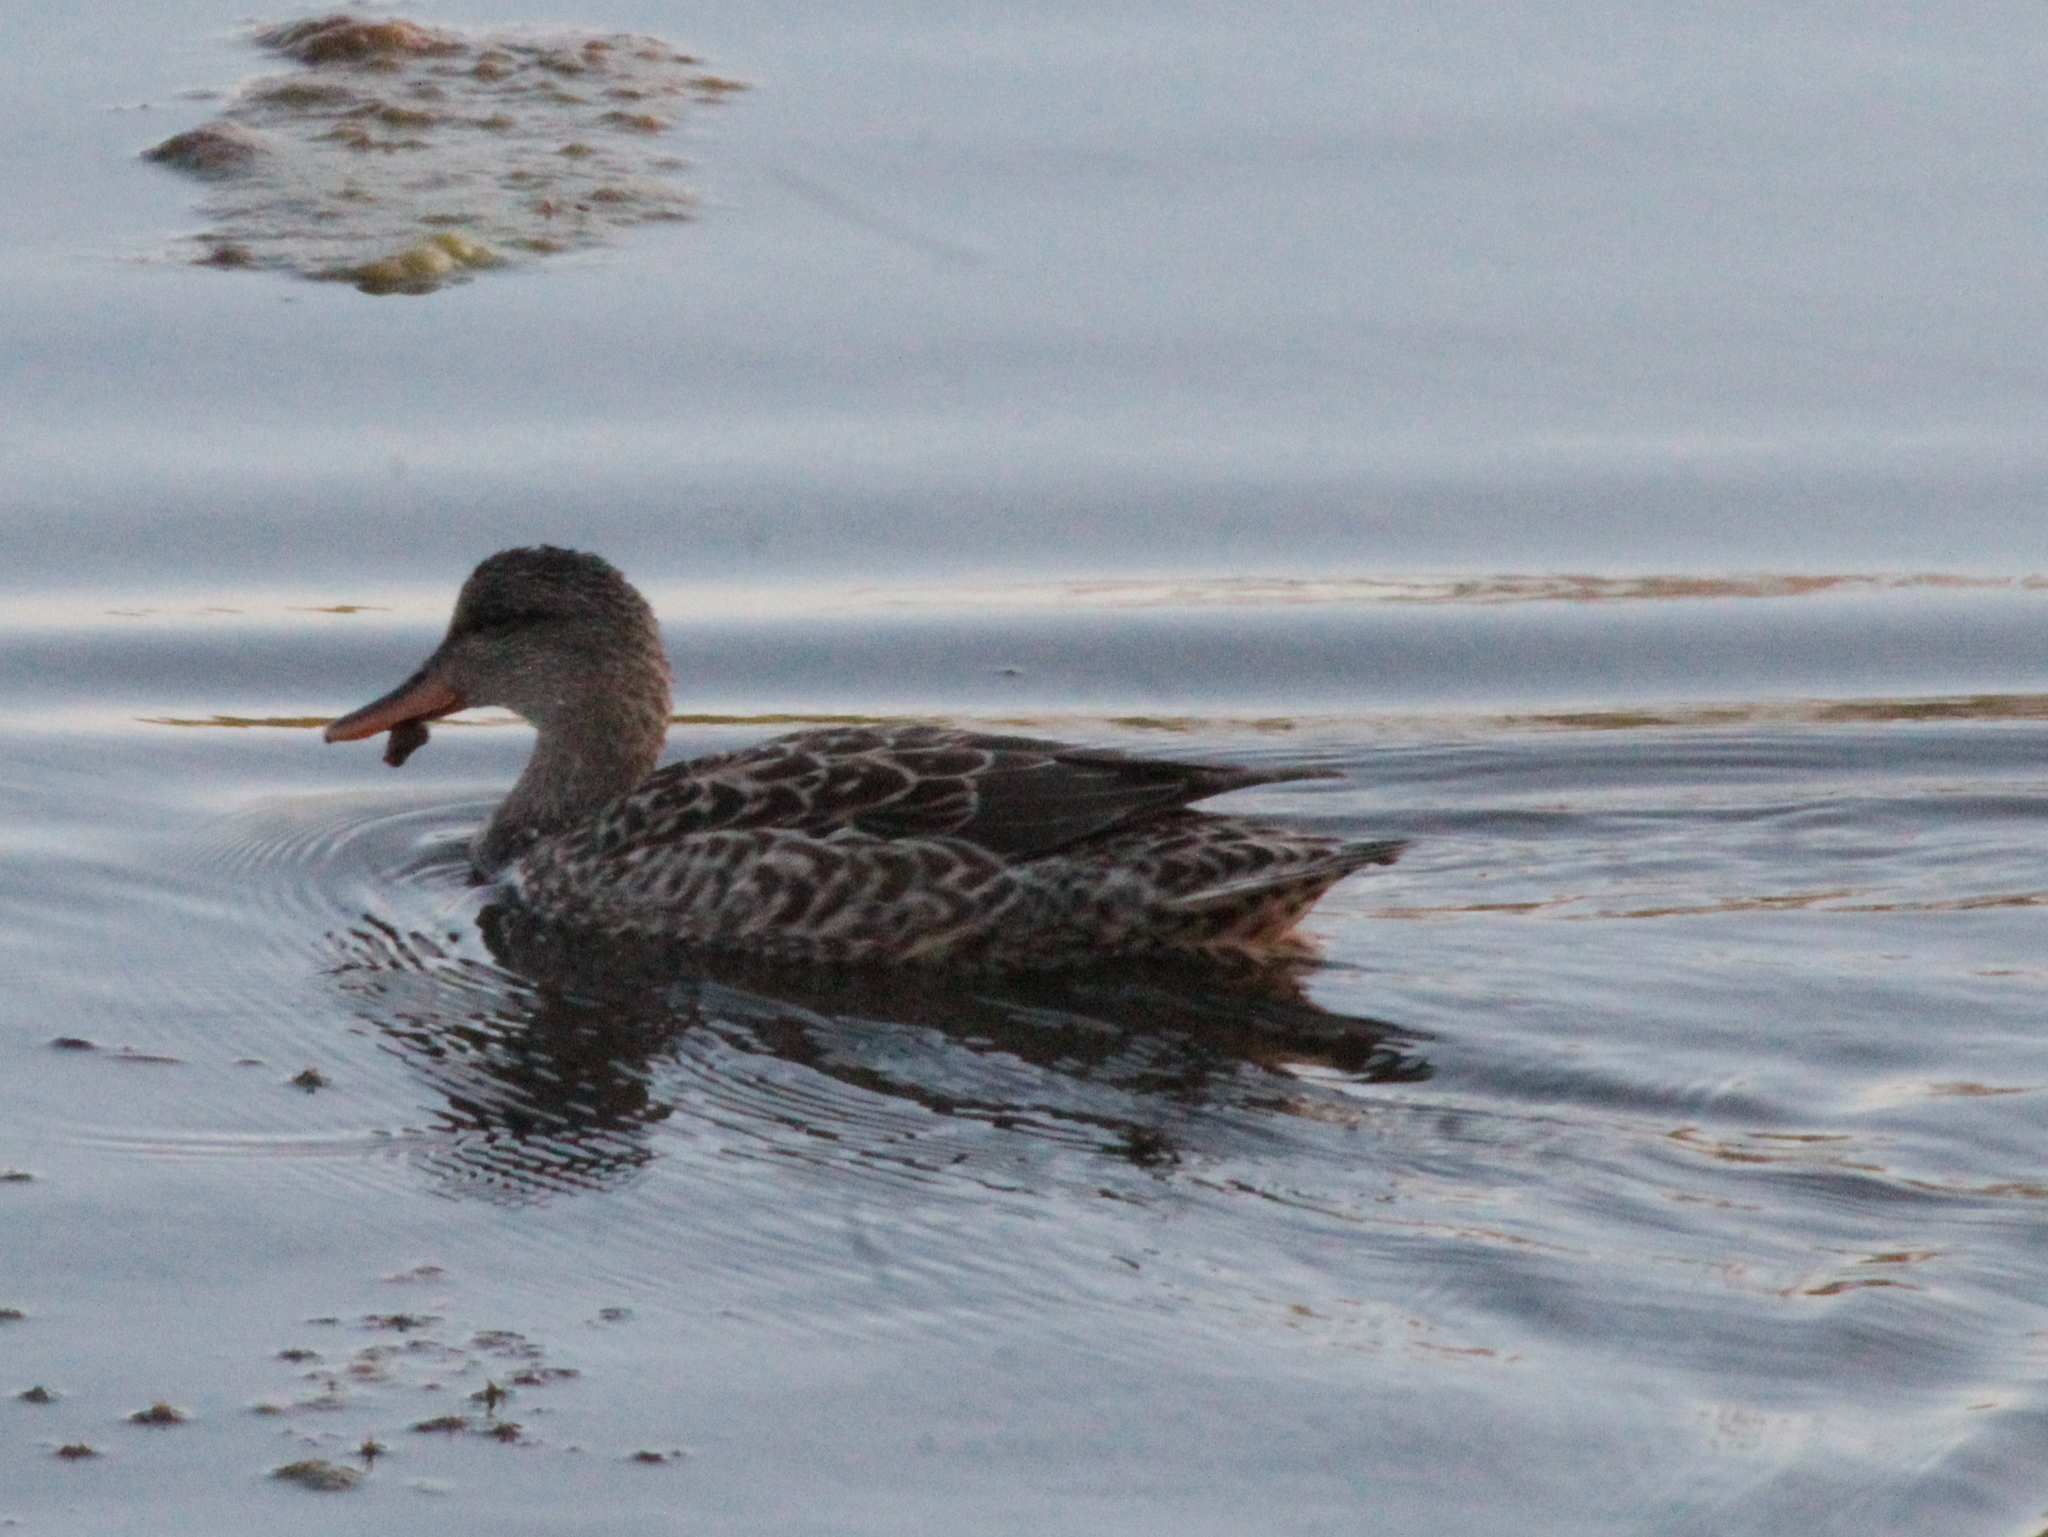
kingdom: Animalia
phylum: Chordata
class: Aves
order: Anseriformes
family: Anatidae
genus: Mareca
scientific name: Mareca strepera
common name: Gadwall
